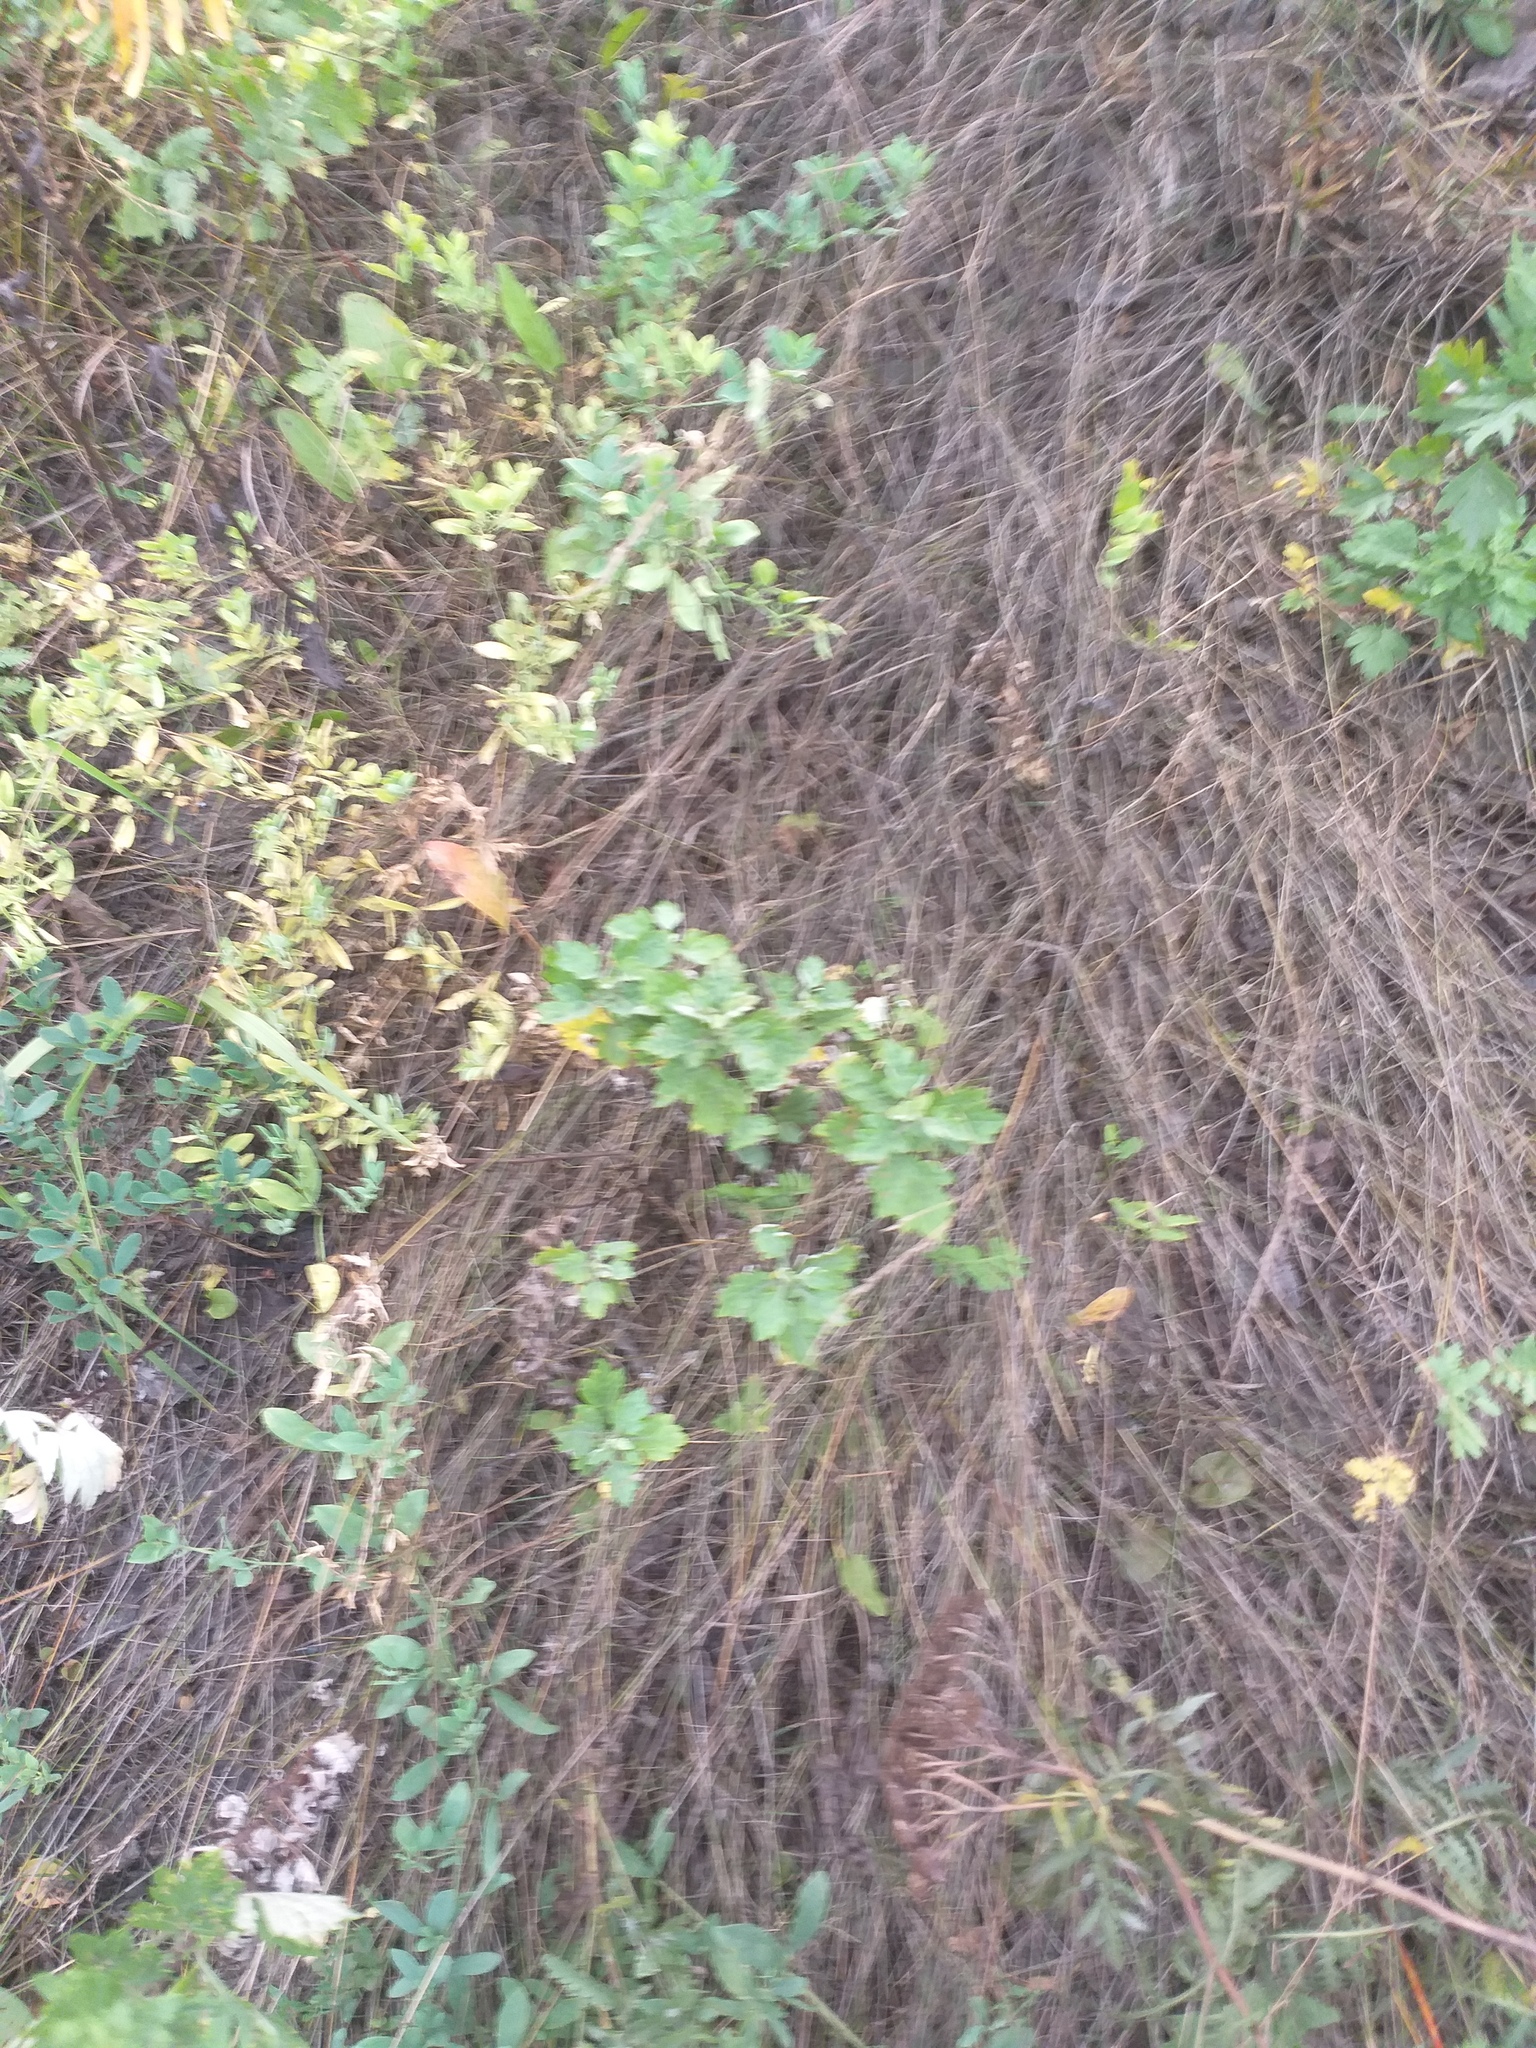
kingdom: Plantae
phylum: Tracheophyta
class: Magnoliopsida
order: Asterales
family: Asteraceae
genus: Artemisia
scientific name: Artemisia vulgaris
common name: Mugwort
